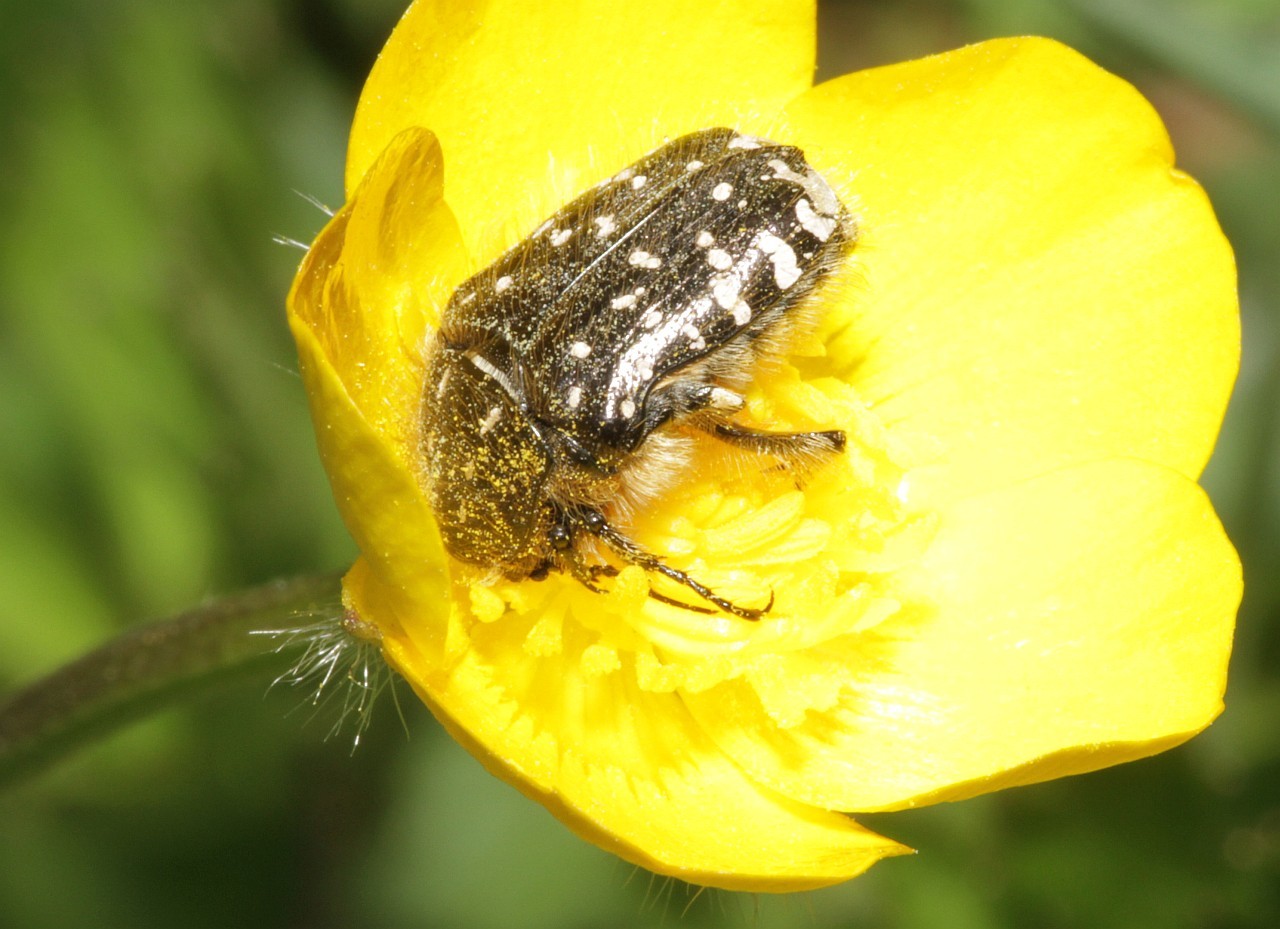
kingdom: Animalia
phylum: Arthropoda
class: Insecta
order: Coleoptera
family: Scarabaeidae
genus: Oxythyrea
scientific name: Oxythyrea funesta
